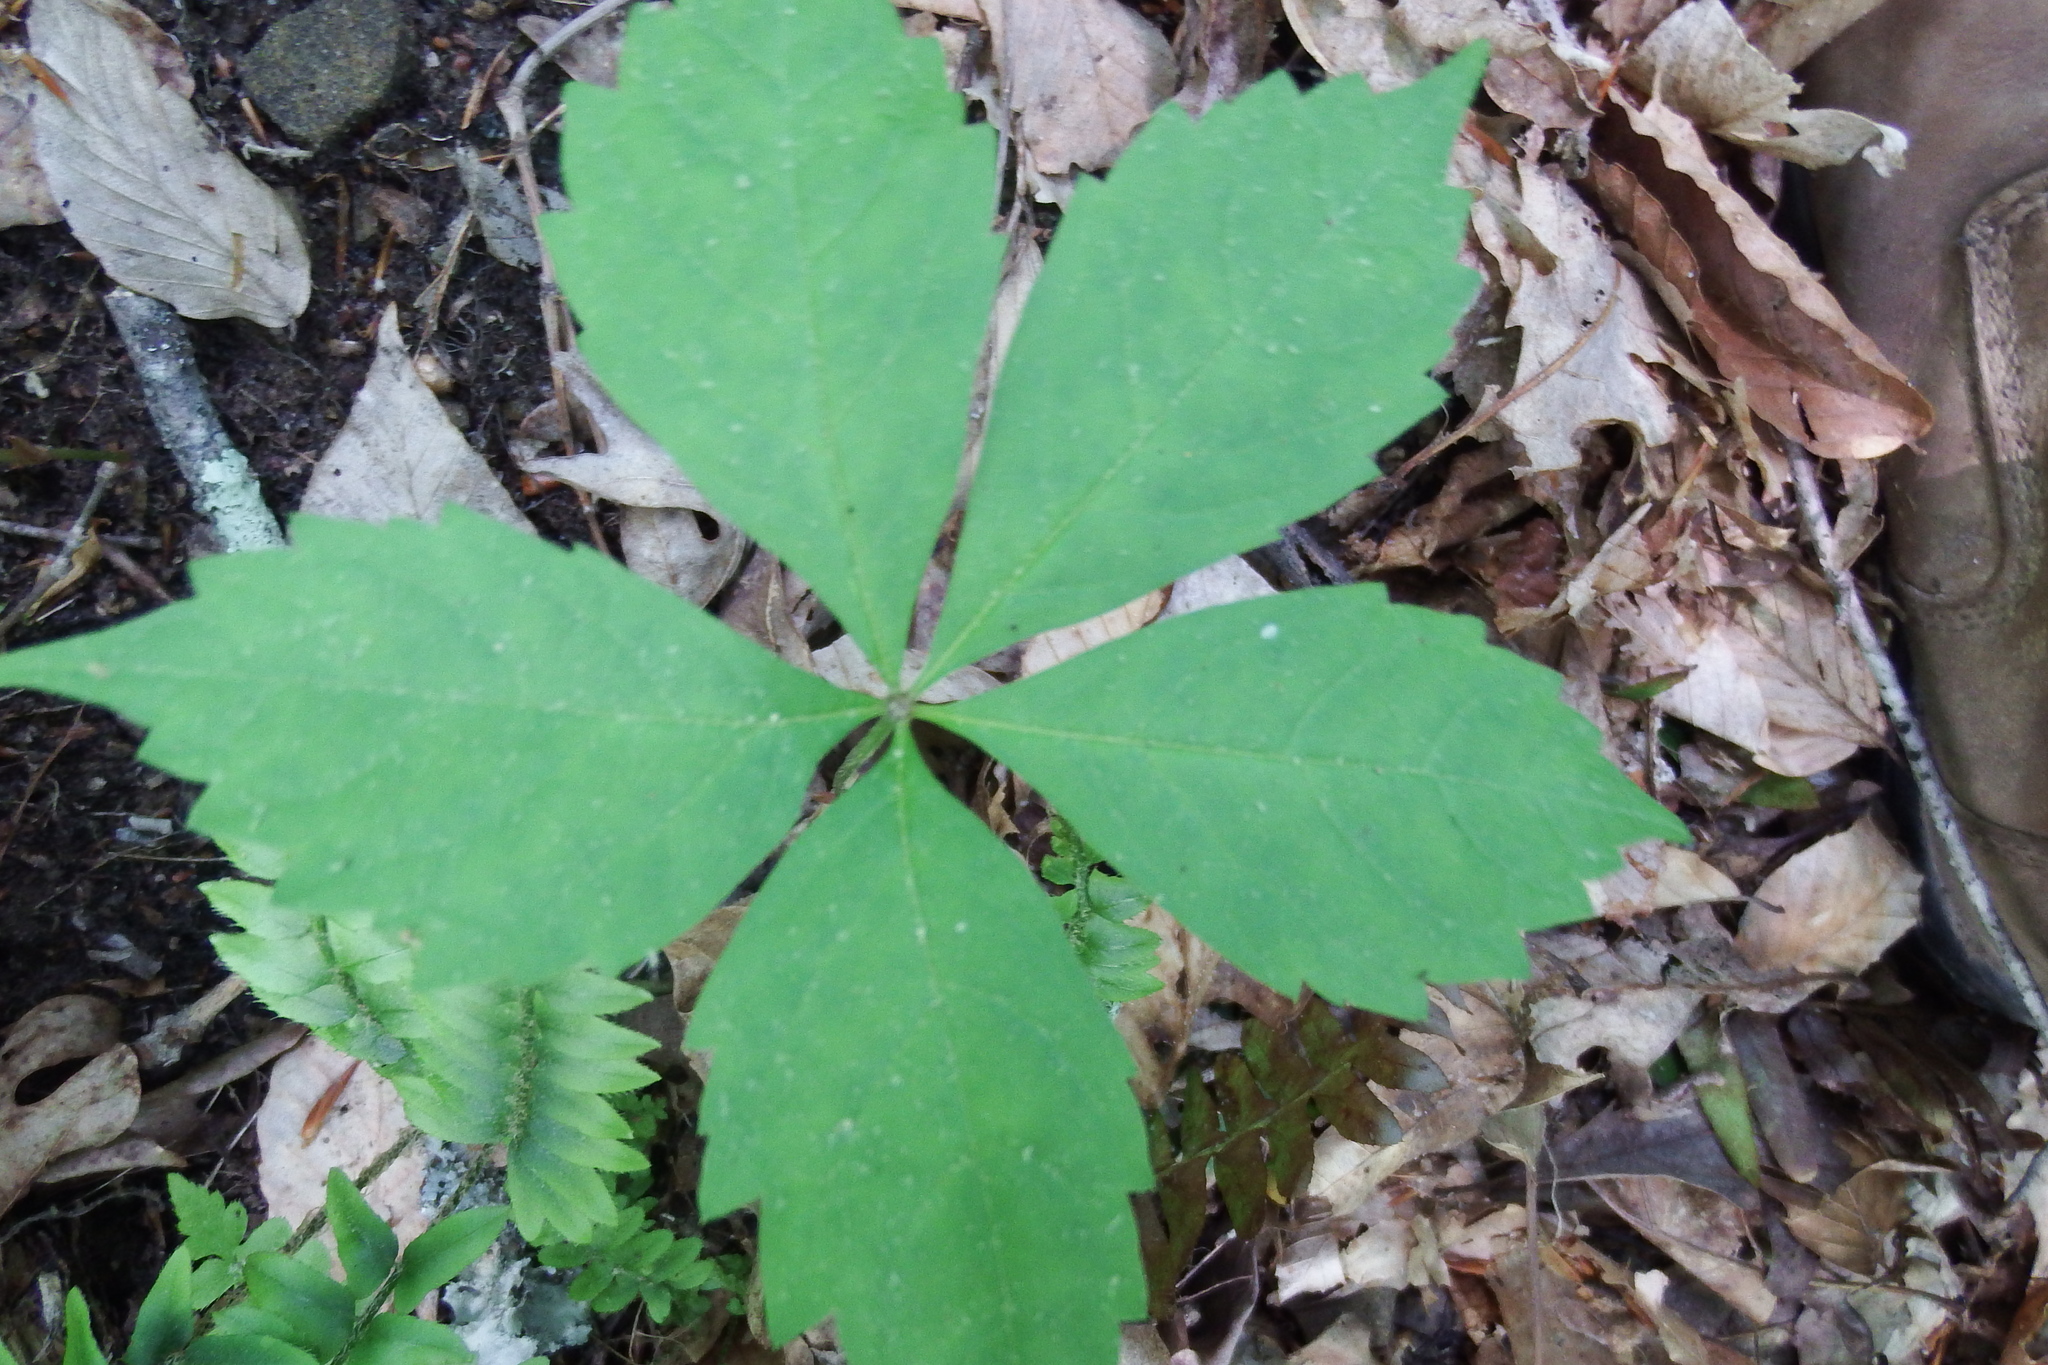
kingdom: Plantae
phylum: Tracheophyta
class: Magnoliopsida
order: Vitales
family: Vitaceae
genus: Parthenocissus
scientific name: Parthenocissus quinquefolia
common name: Virginia-creeper
